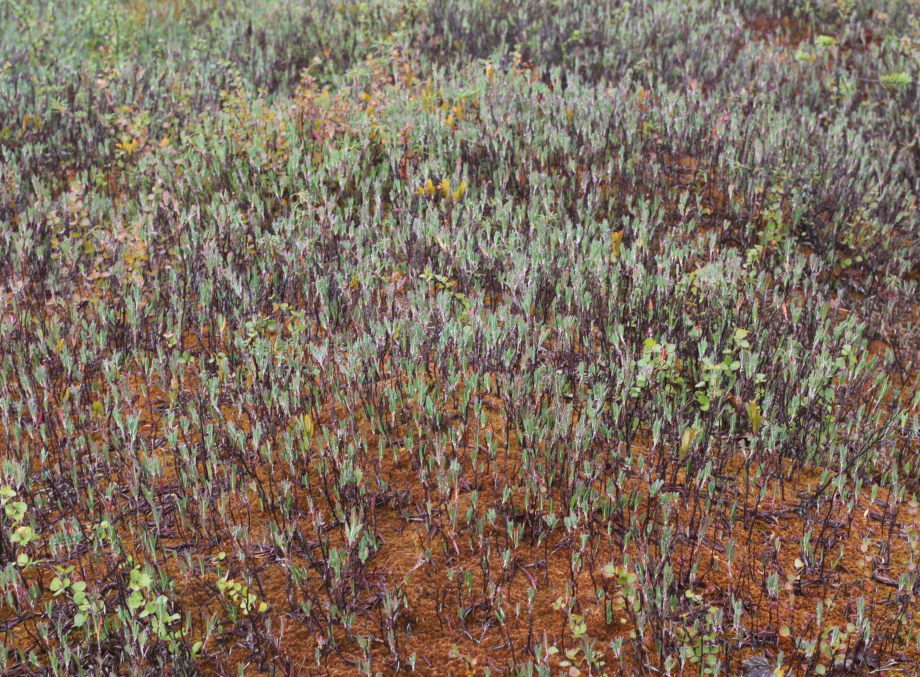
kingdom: Plantae
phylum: Tracheophyta
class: Magnoliopsida
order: Ericales
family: Ericaceae
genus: Andromeda
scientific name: Andromeda polifolia
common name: Bog-rosemary
